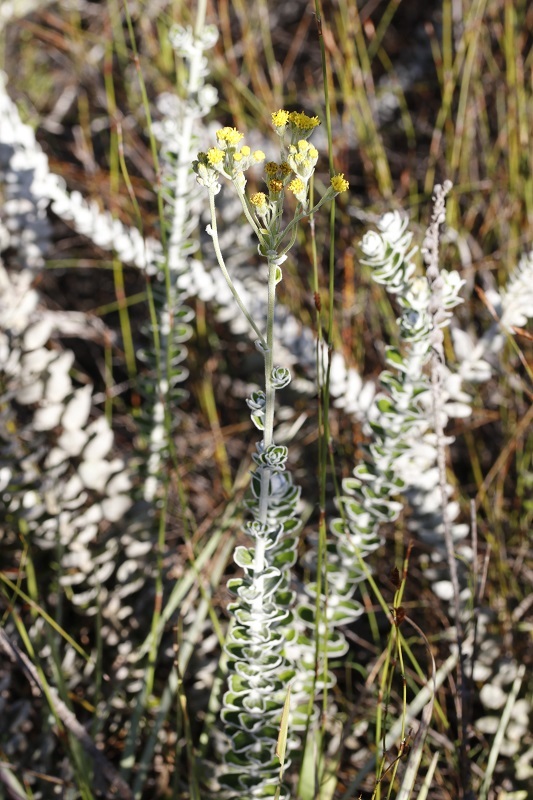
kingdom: Plantae
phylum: Tracheophyta
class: Magnoliopsida
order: Asterales
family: Asteraceae
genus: Senecio
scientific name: Senecio pauciflosculosus
